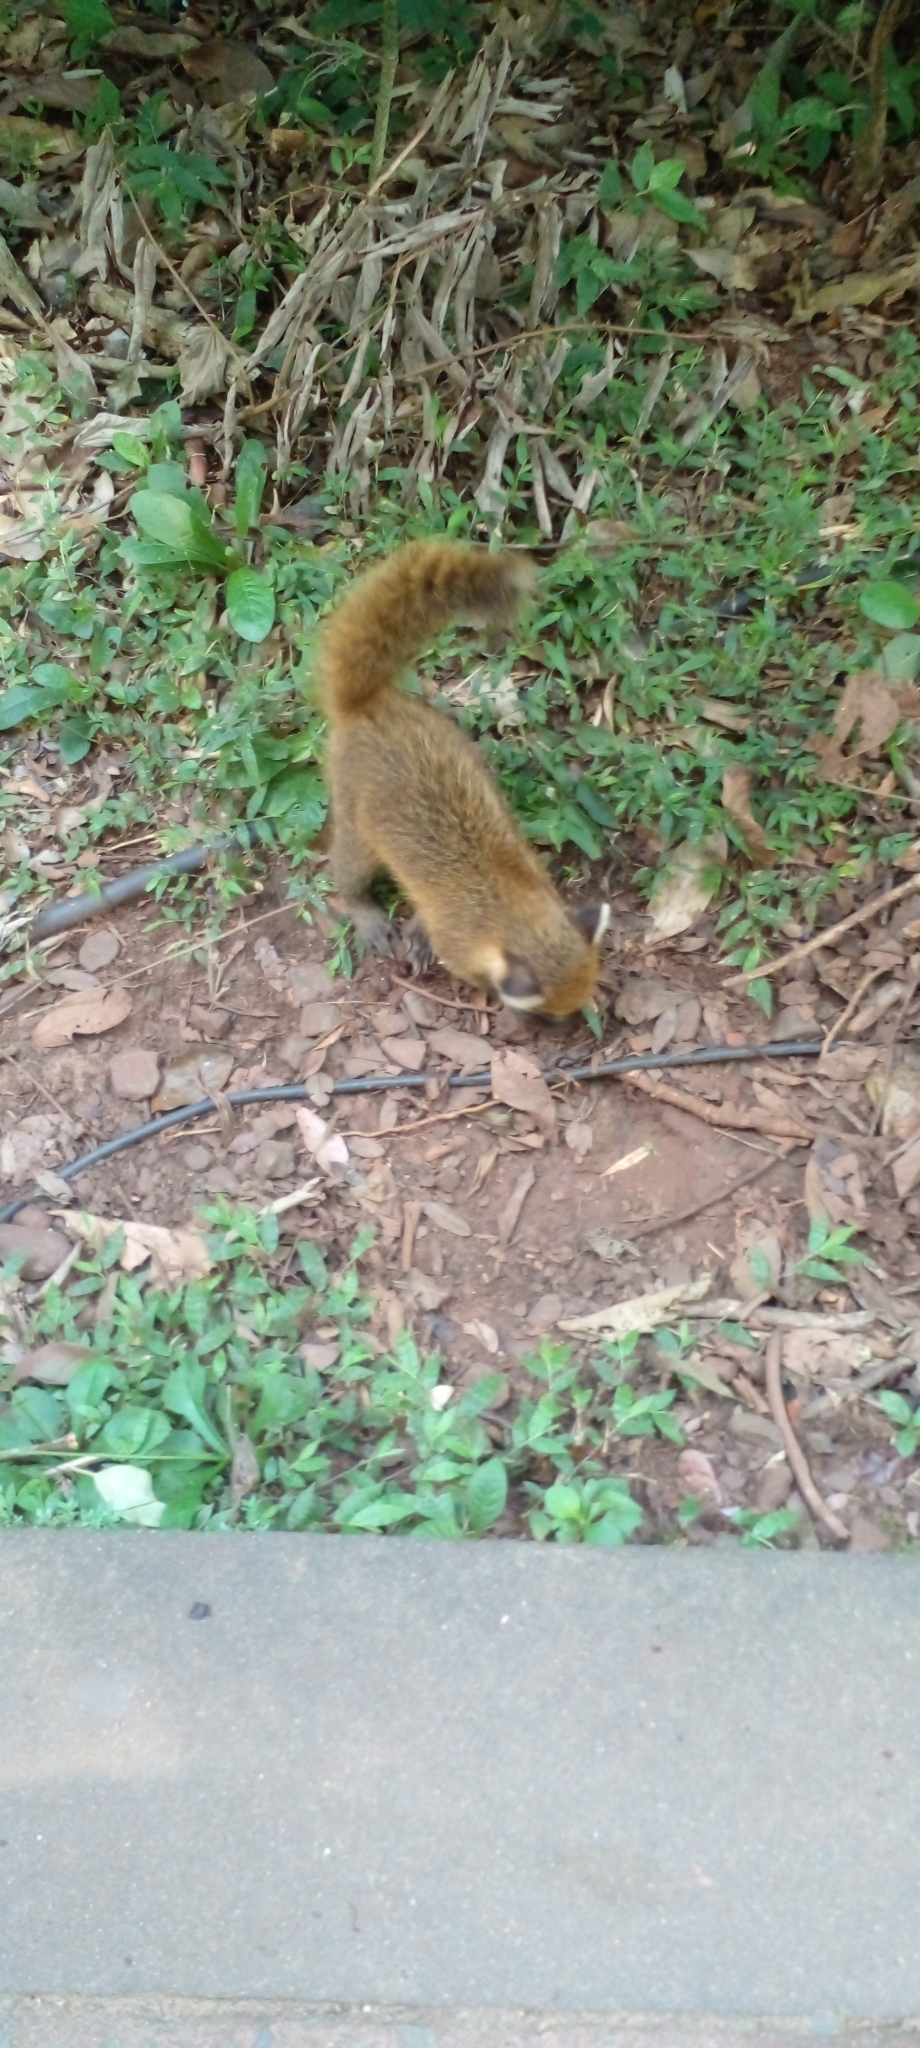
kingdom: Animalia
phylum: Chordata
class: Mammalia
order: Carnivora
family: Procyonidae
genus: Nasua
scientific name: Nasua nasua
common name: South american coati
